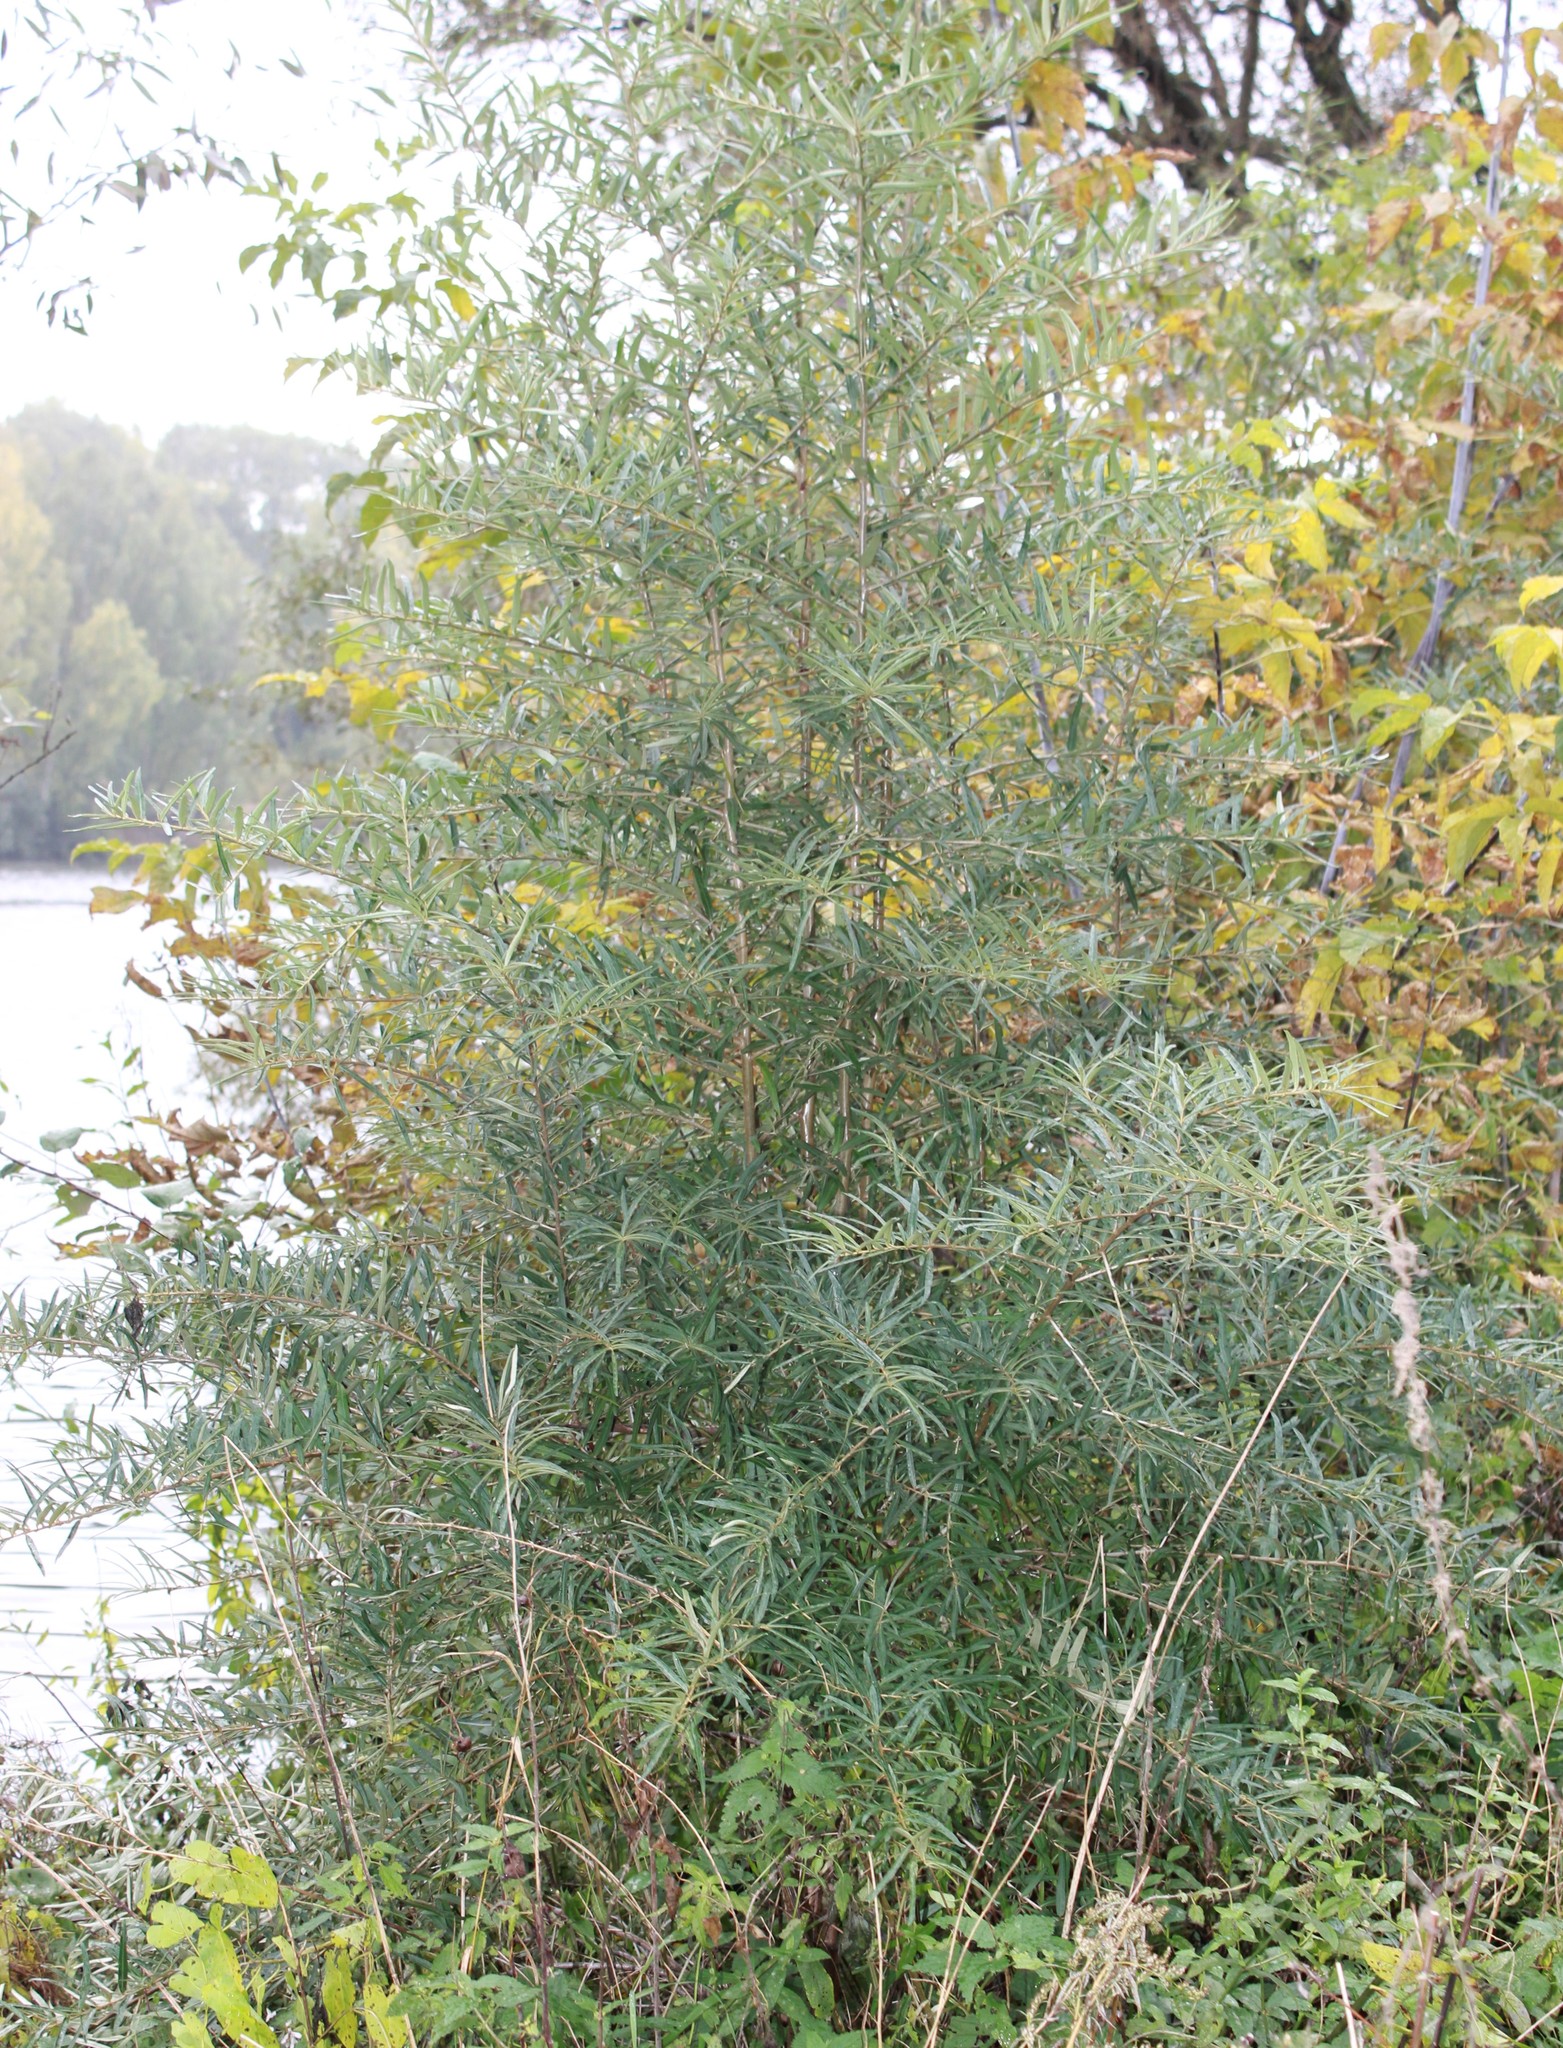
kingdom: Plantae
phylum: Tracheophyta
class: Magnoliopsida
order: Rosales
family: Elaeagnaceae
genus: Hippophae
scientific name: Hippophae rhamnoides
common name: Sea-buckthorn
